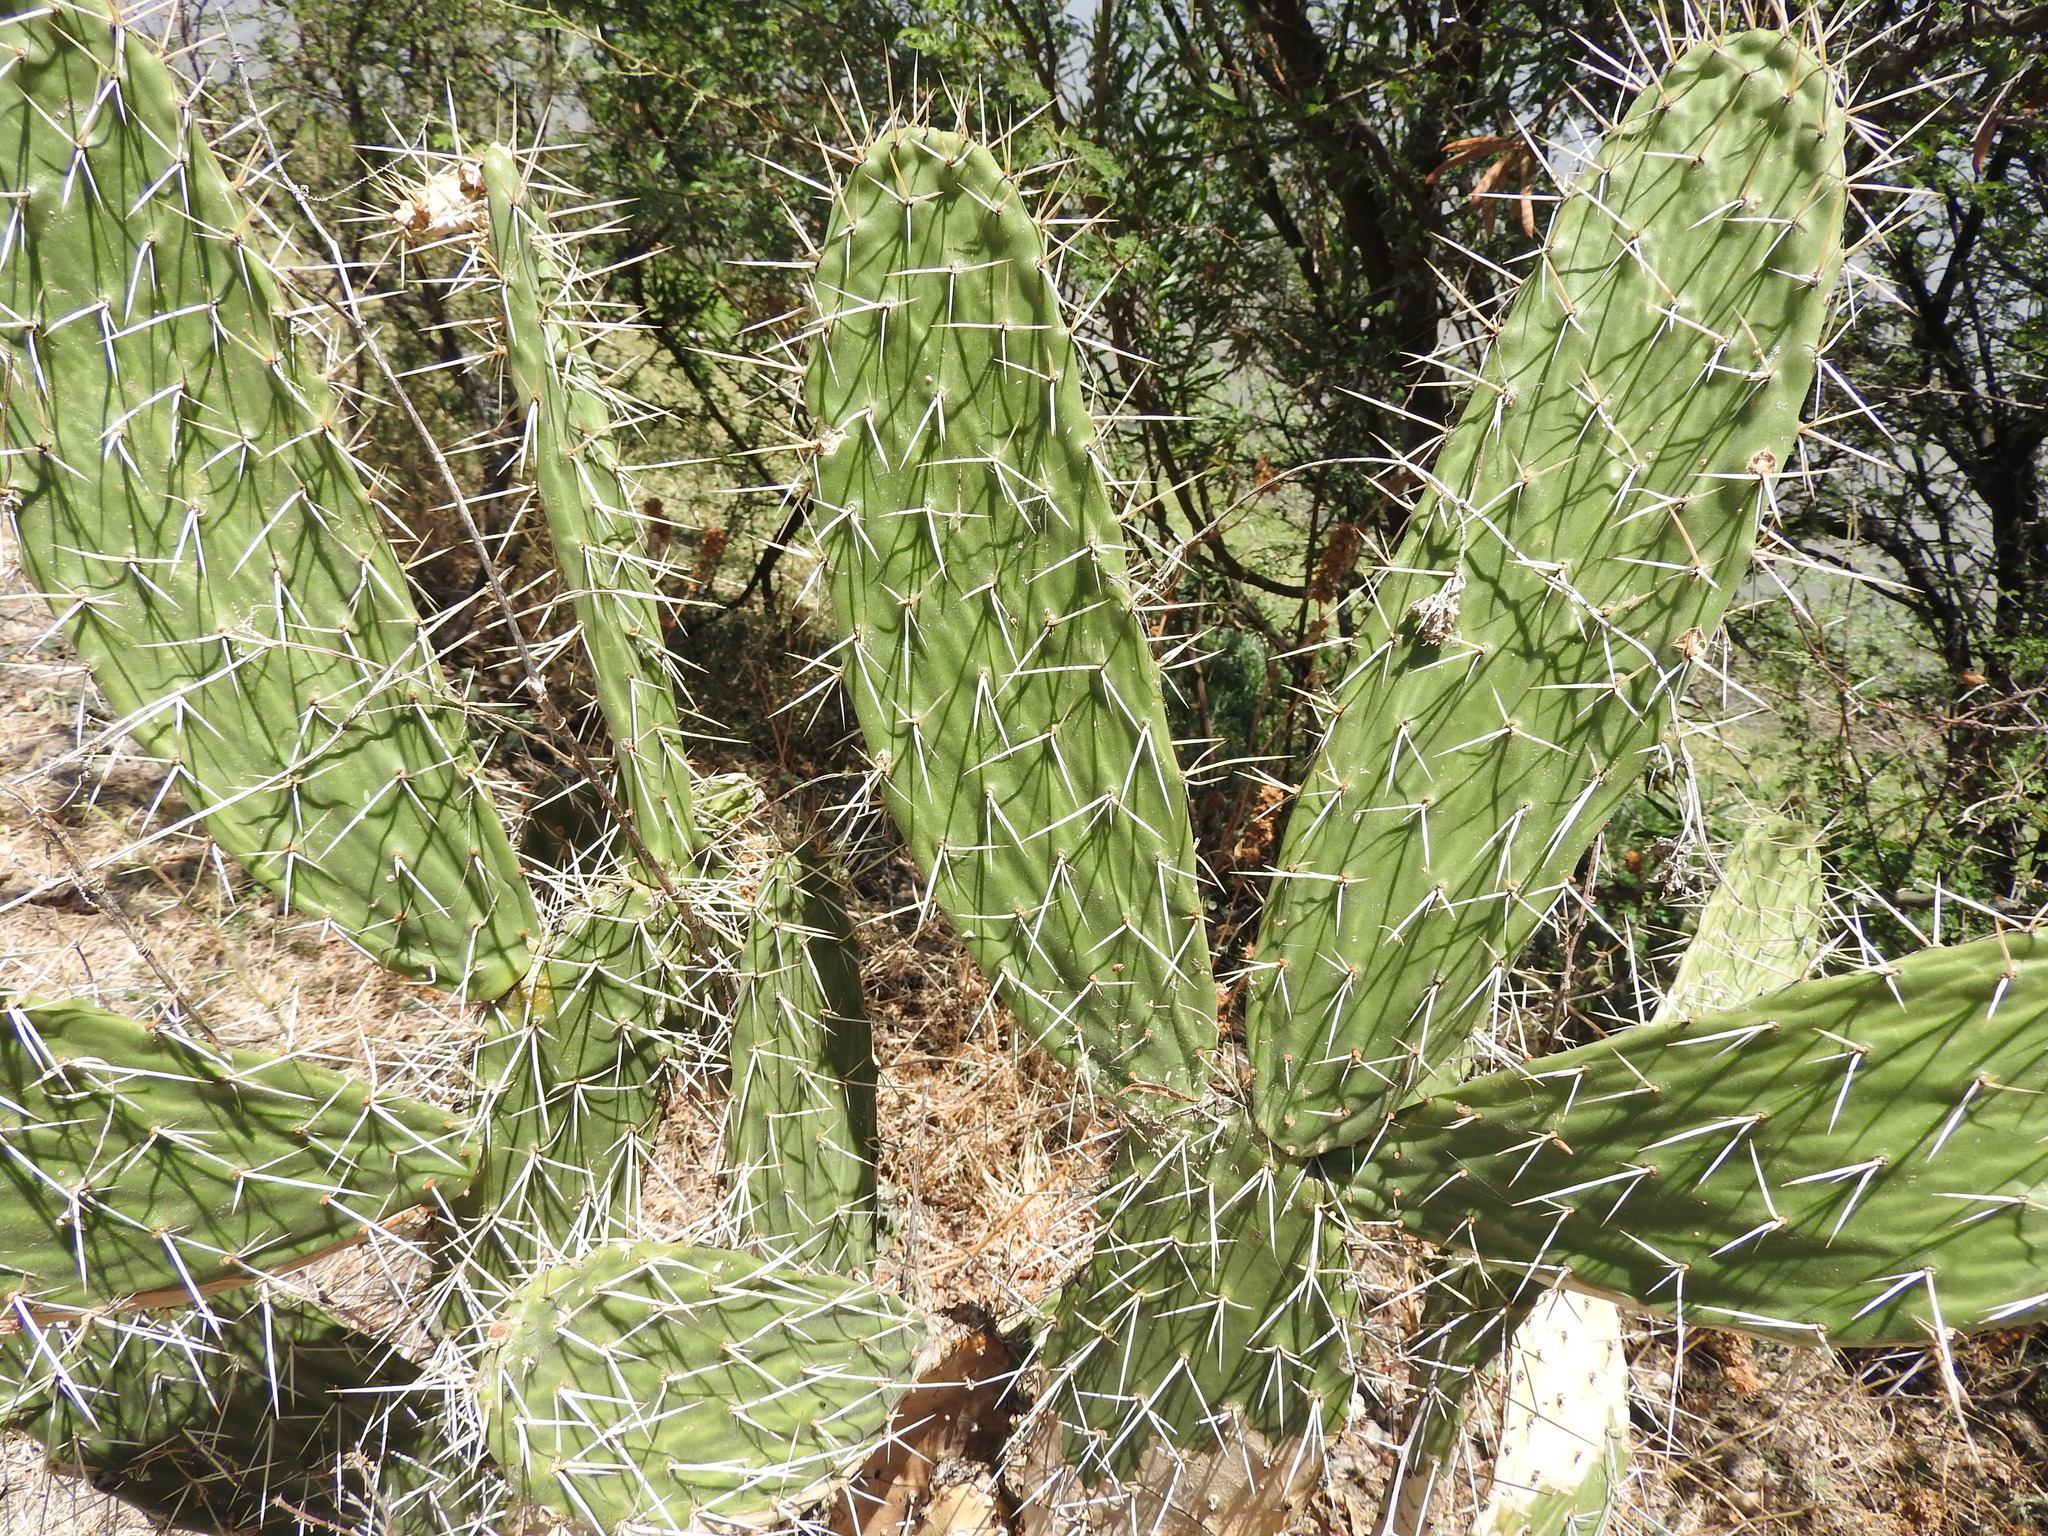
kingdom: Plantae
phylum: Tracheophyta
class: Magnoliopsida
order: Caryophyllales
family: Cactaceae
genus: Opuntia
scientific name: Opuntia ficus-indica
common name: Barbary fig
